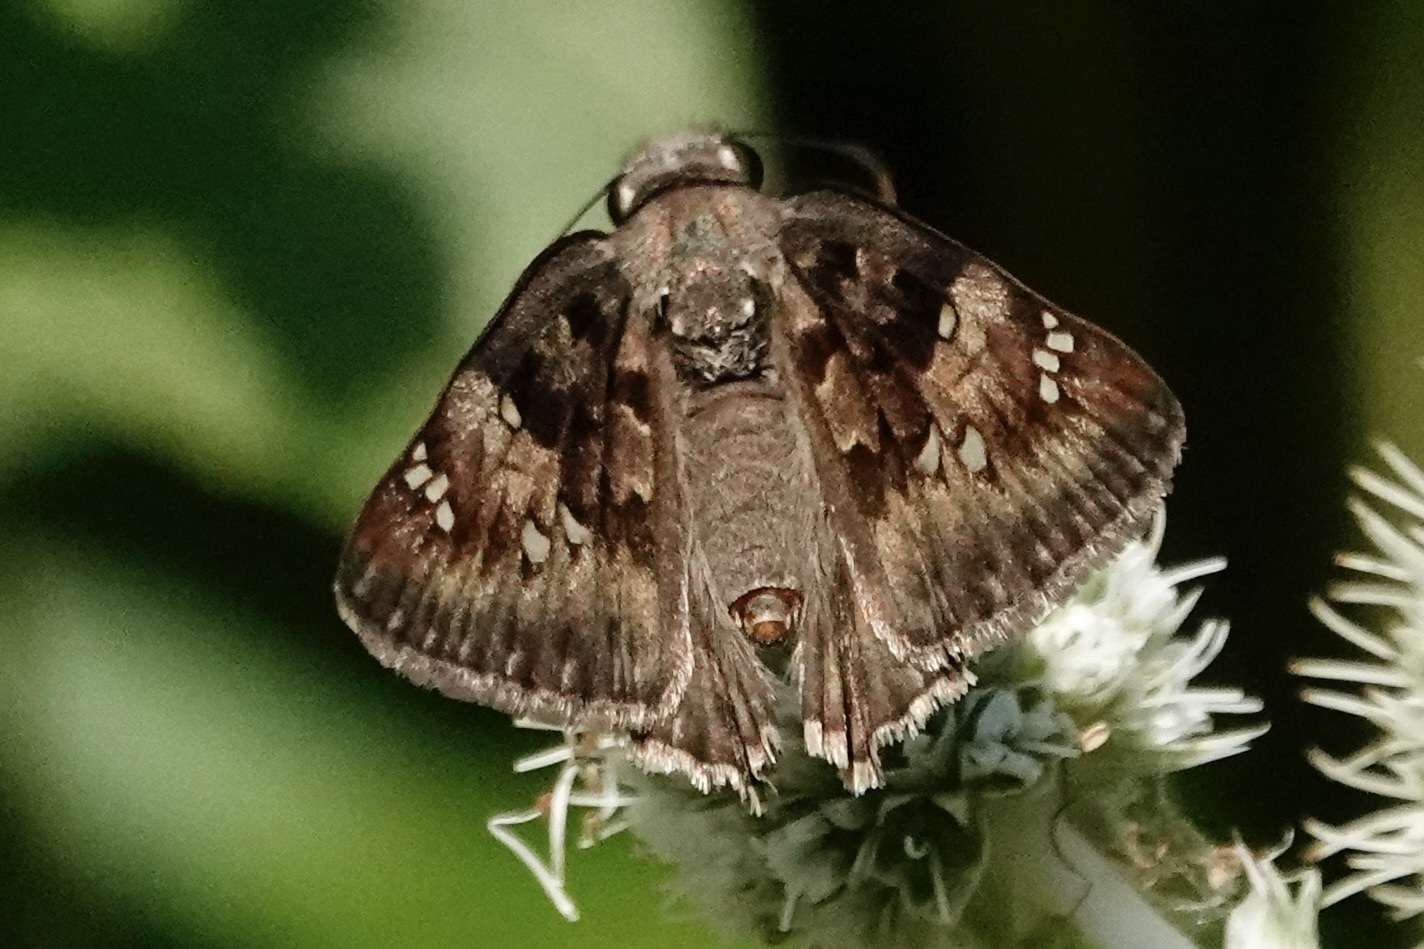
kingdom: Animalia
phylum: Arthropoda
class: Insecta
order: Lepidoptera
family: Hesperiidae
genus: Erynnis
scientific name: Erynnis horatius
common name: Horace's duskywing
